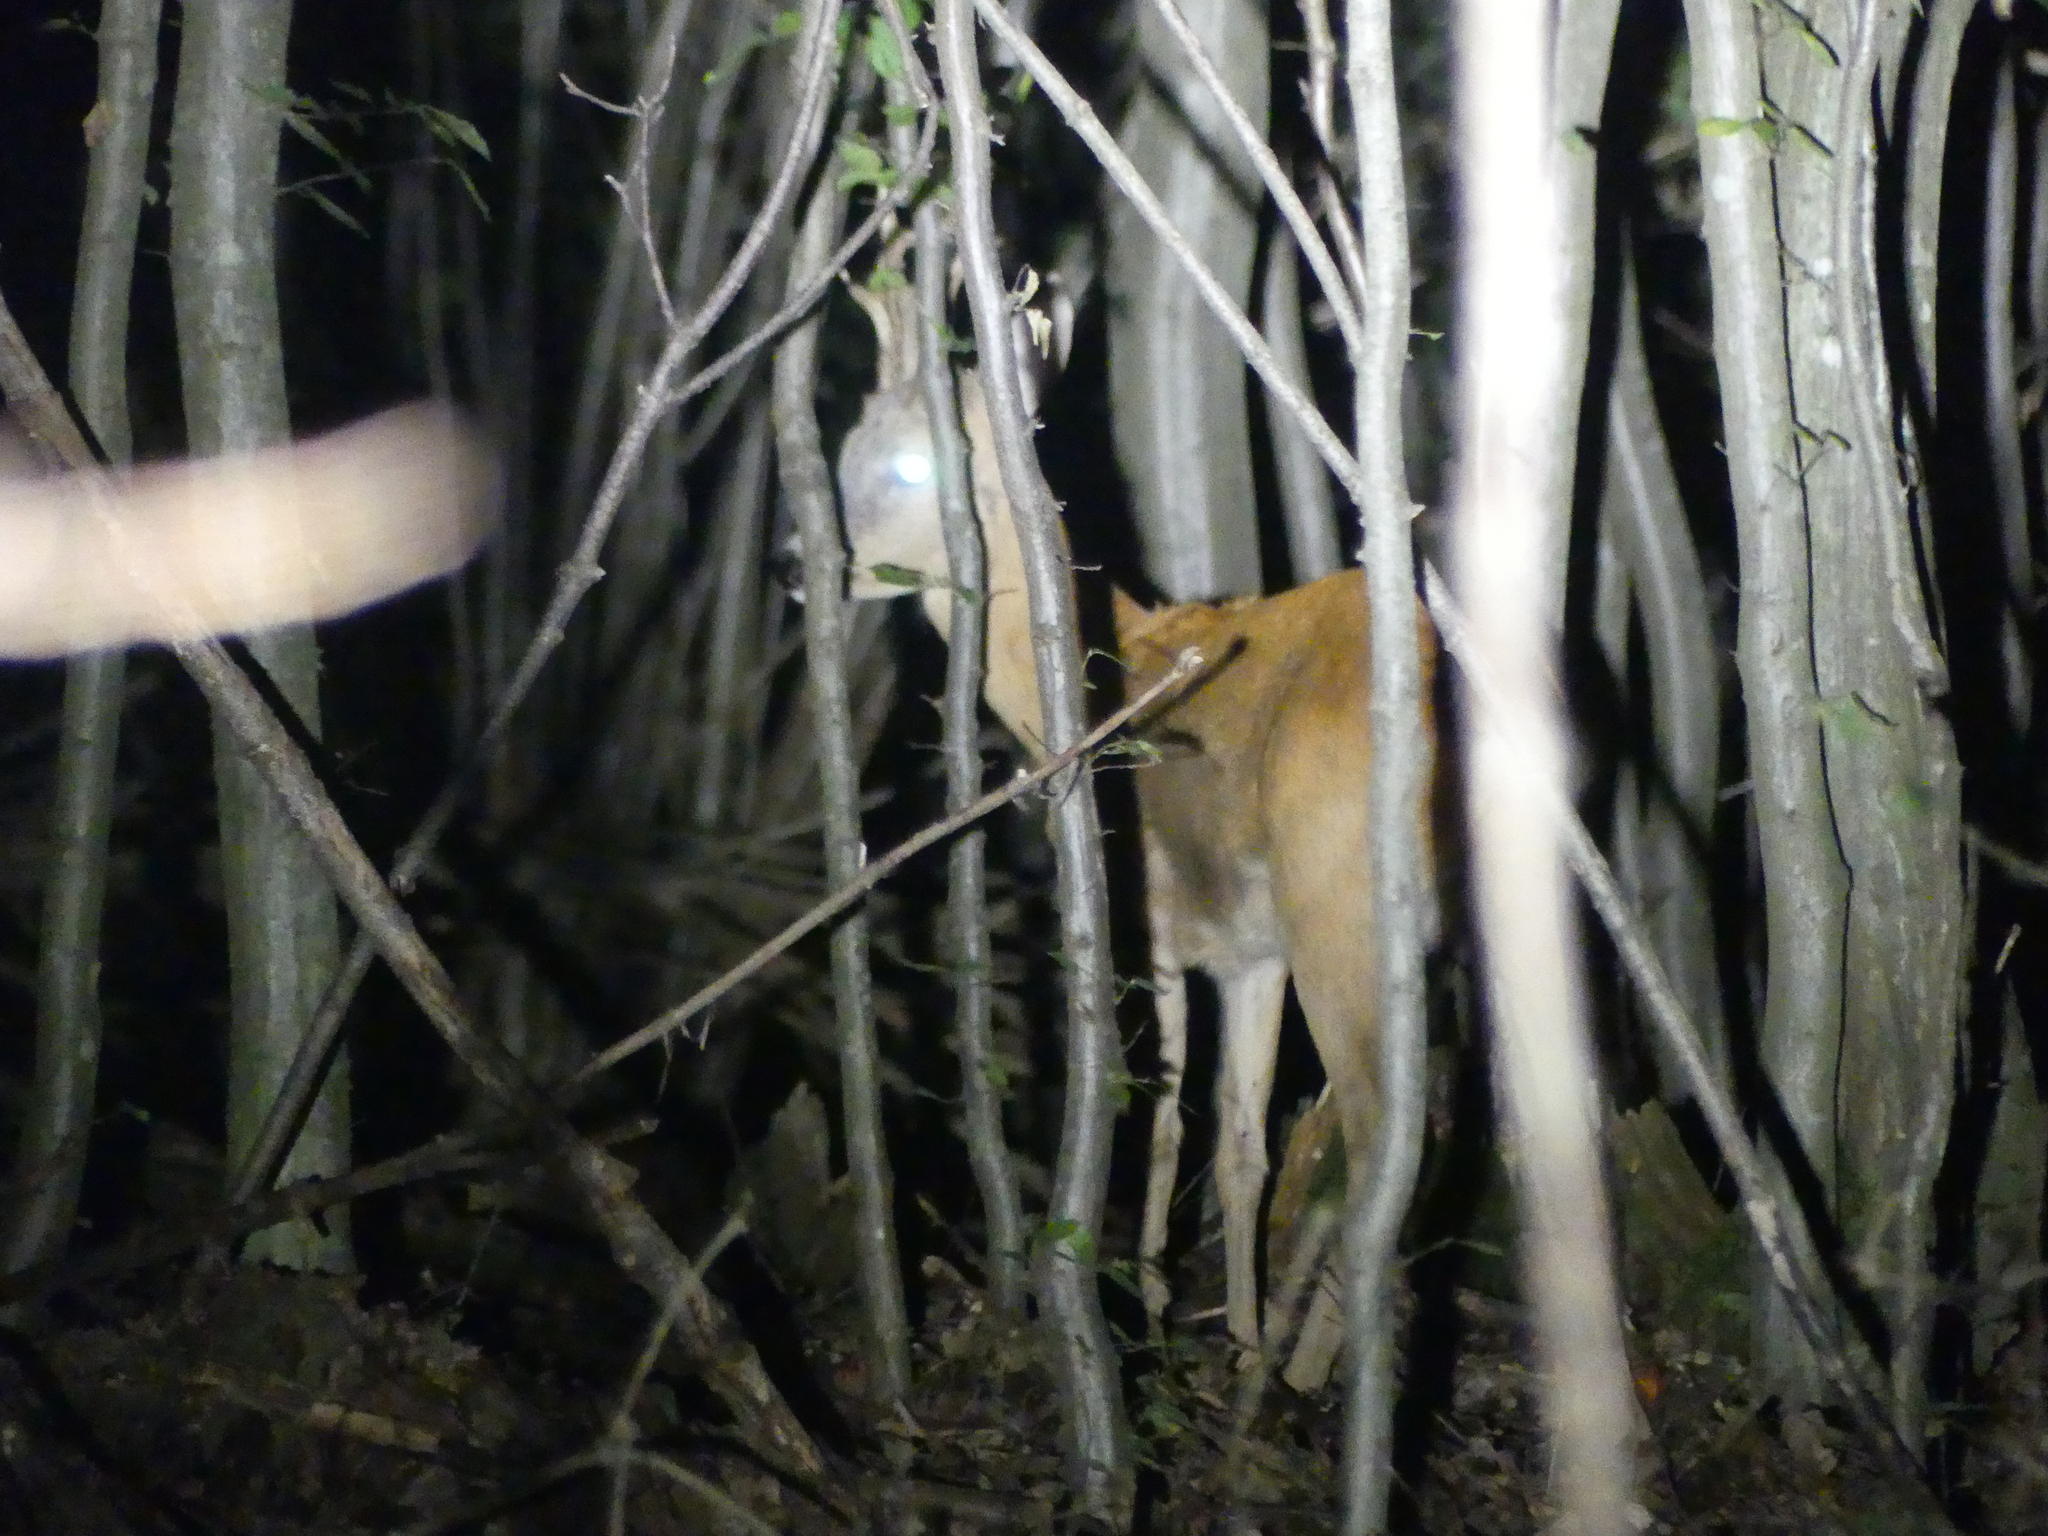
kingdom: Animalia
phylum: Chordata
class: Mammalia
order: Artiodactyla
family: Cervidae
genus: Capreolus
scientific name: Capreolus capreolus
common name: Western roe deer
